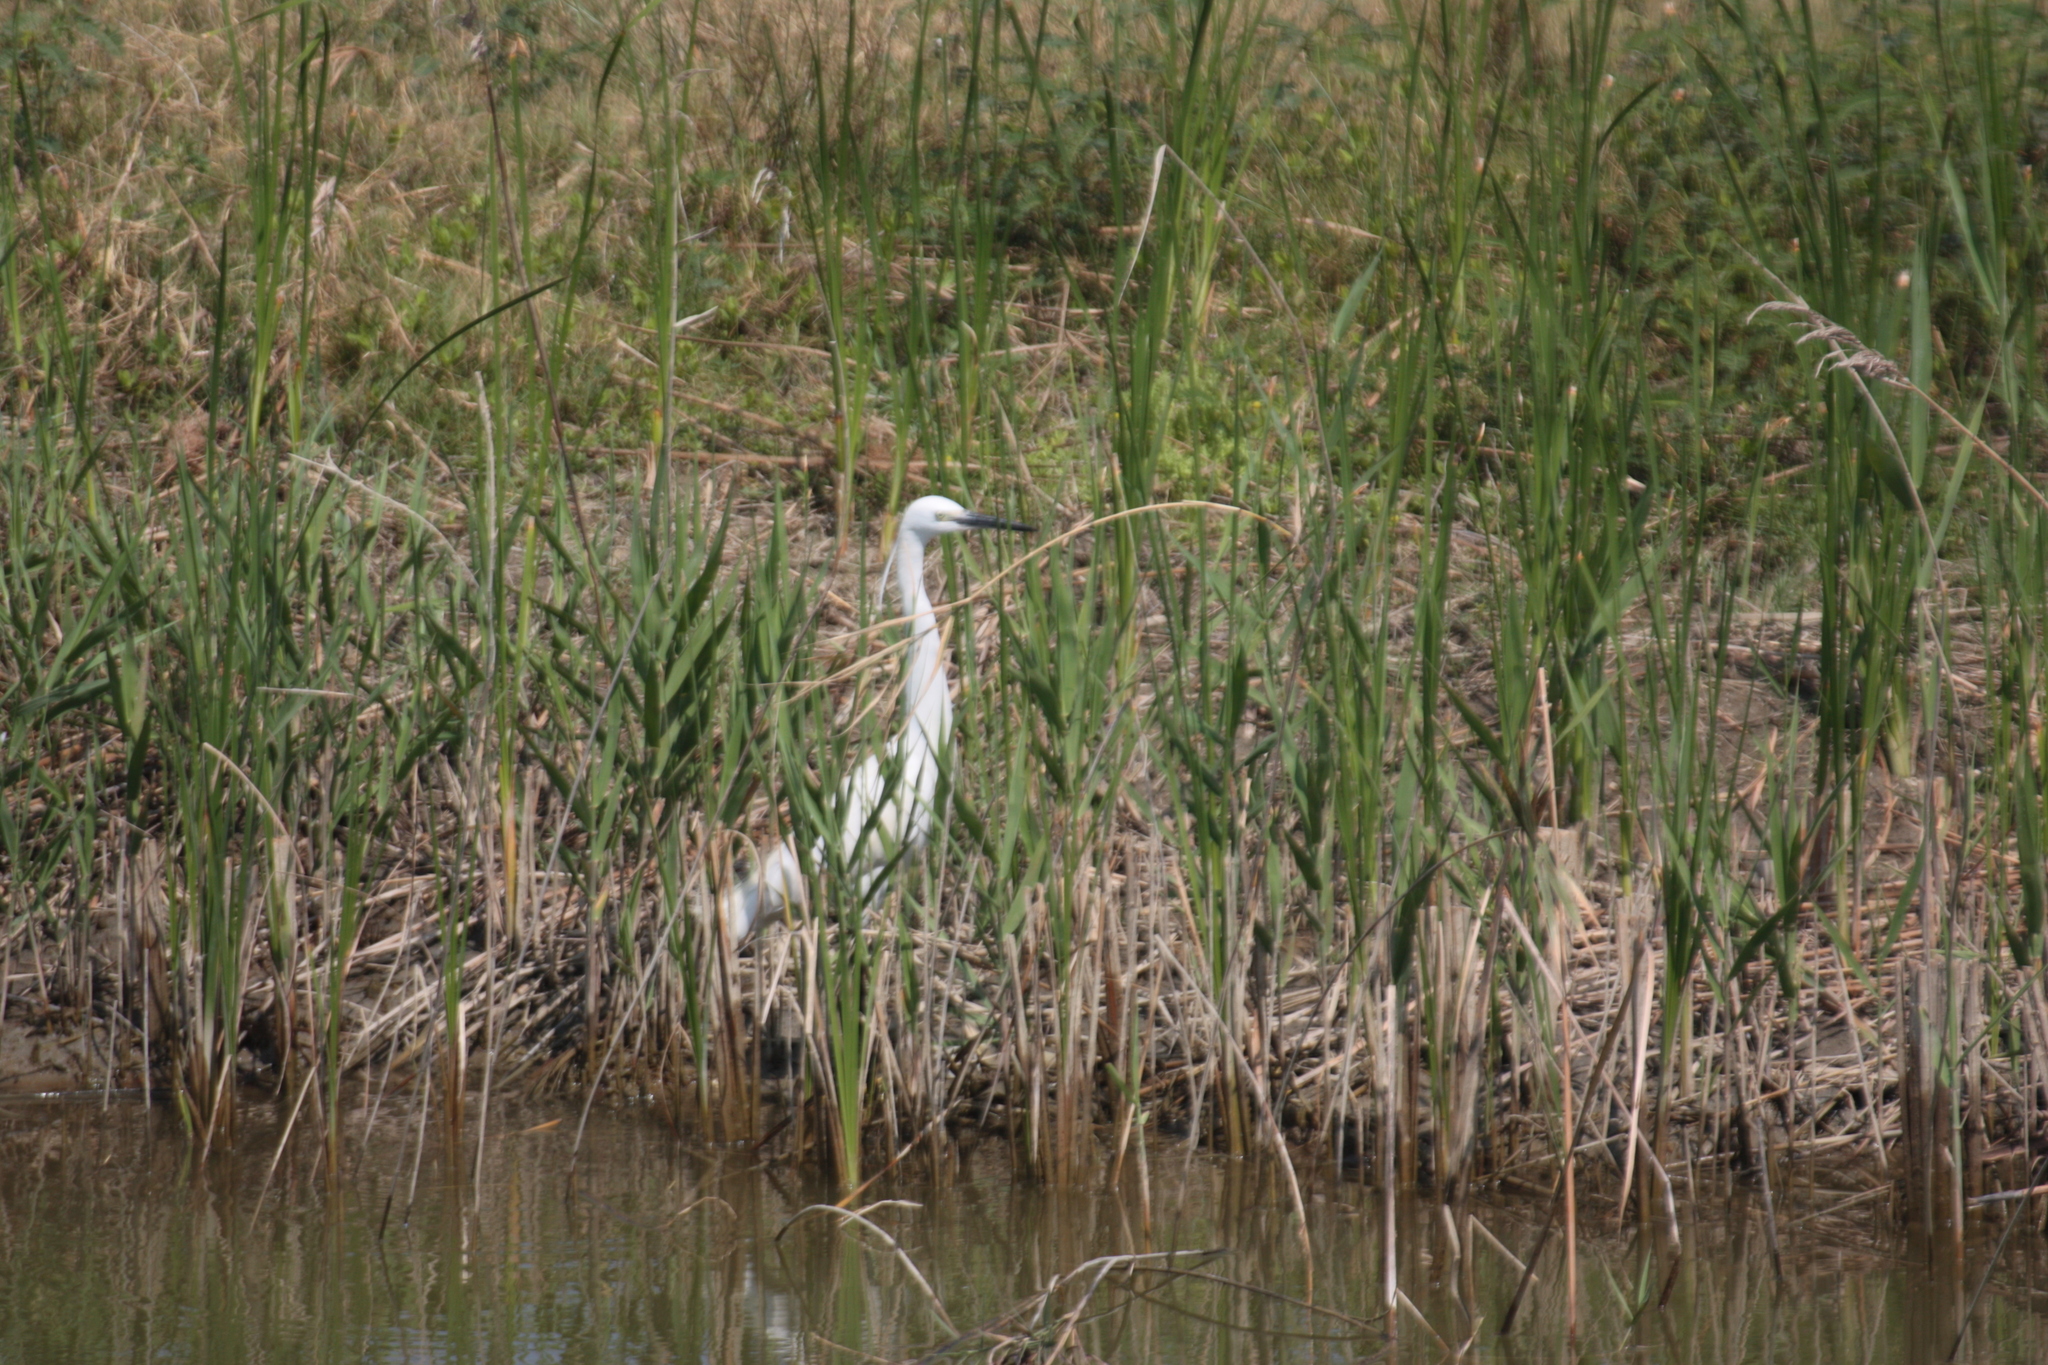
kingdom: Animalia
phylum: Chordata
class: Aves
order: Pelecaniformes
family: Ardeidae
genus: Egretta
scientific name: Egretta garzetta
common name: Little egret
